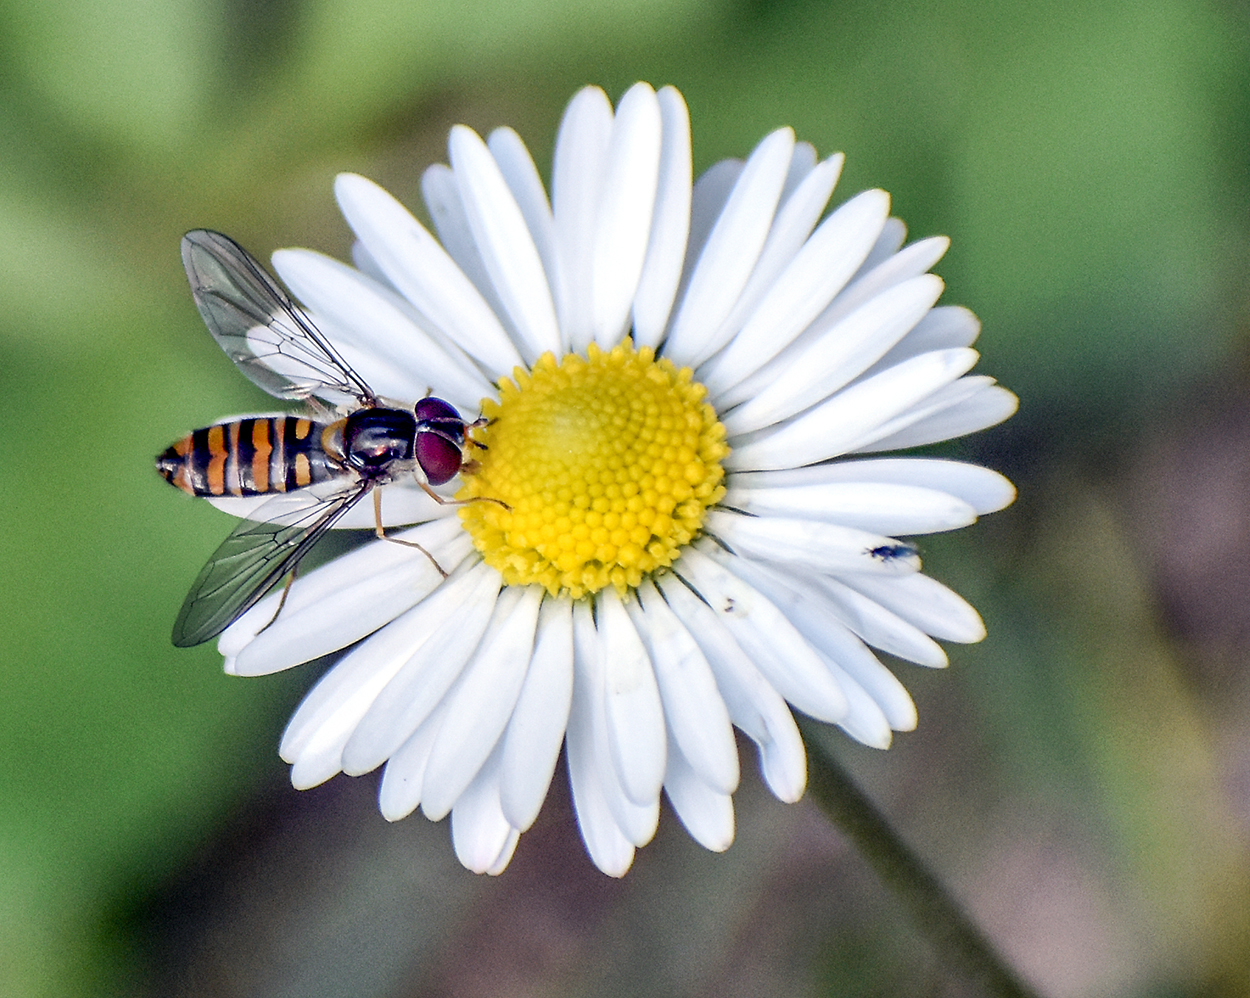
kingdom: Plantae
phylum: Tracheophyta
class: Magnoliopsida
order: Asterales
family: Asteraceae
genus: Bellis
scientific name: Bellis perennis
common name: Lawndaisy
